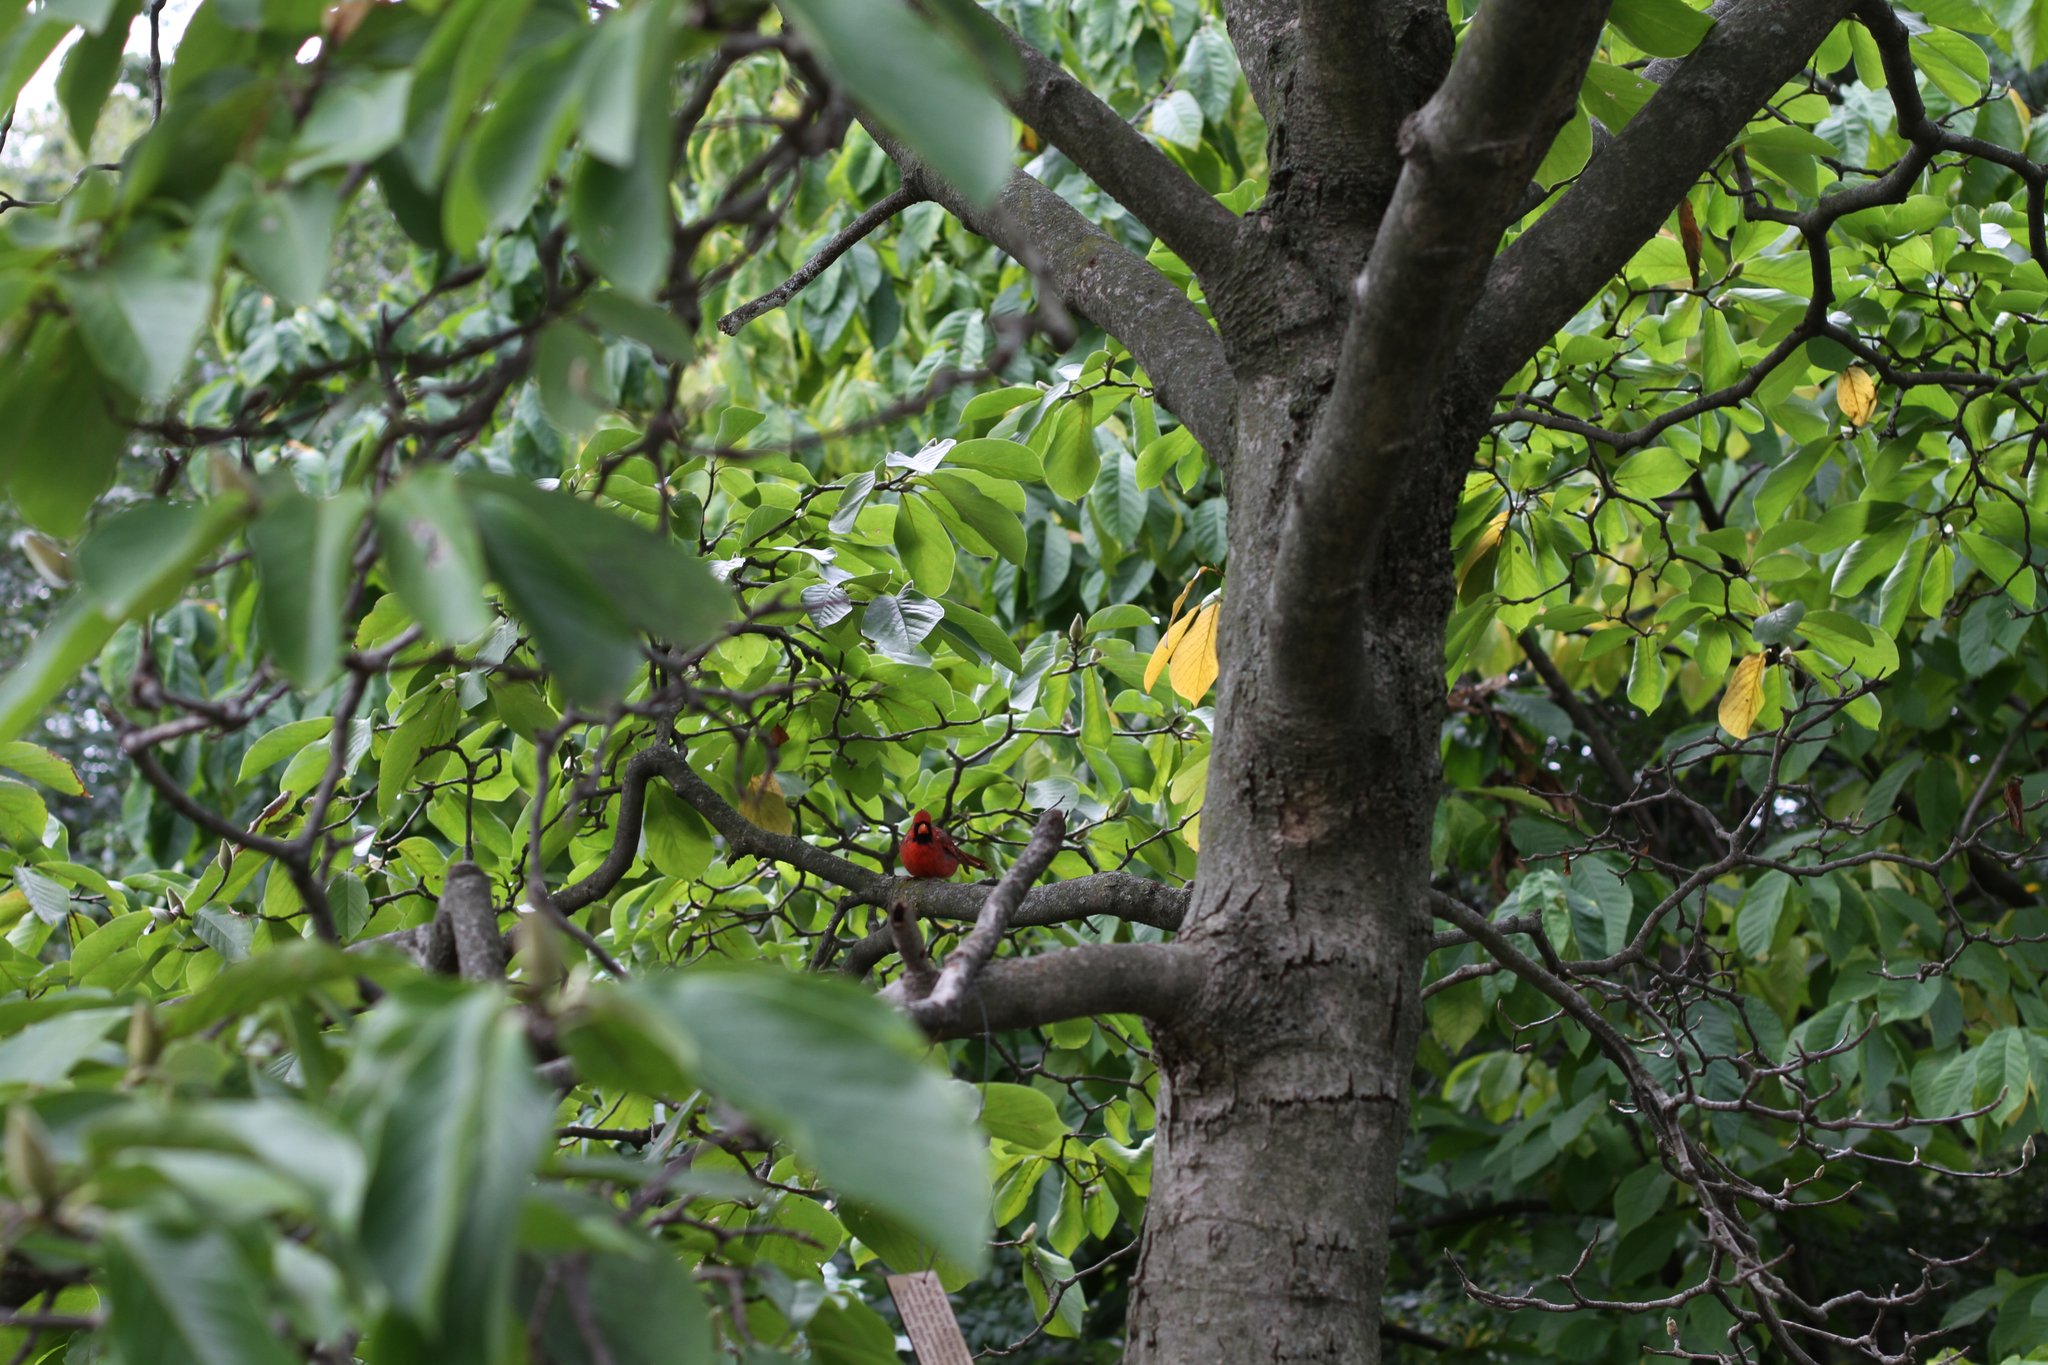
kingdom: Animalia
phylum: Chordata
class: Aves
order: Passeriformes
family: Cardinalidae
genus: Cardinalis
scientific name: Cardinalis cardinalis
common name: Northern cardinal
